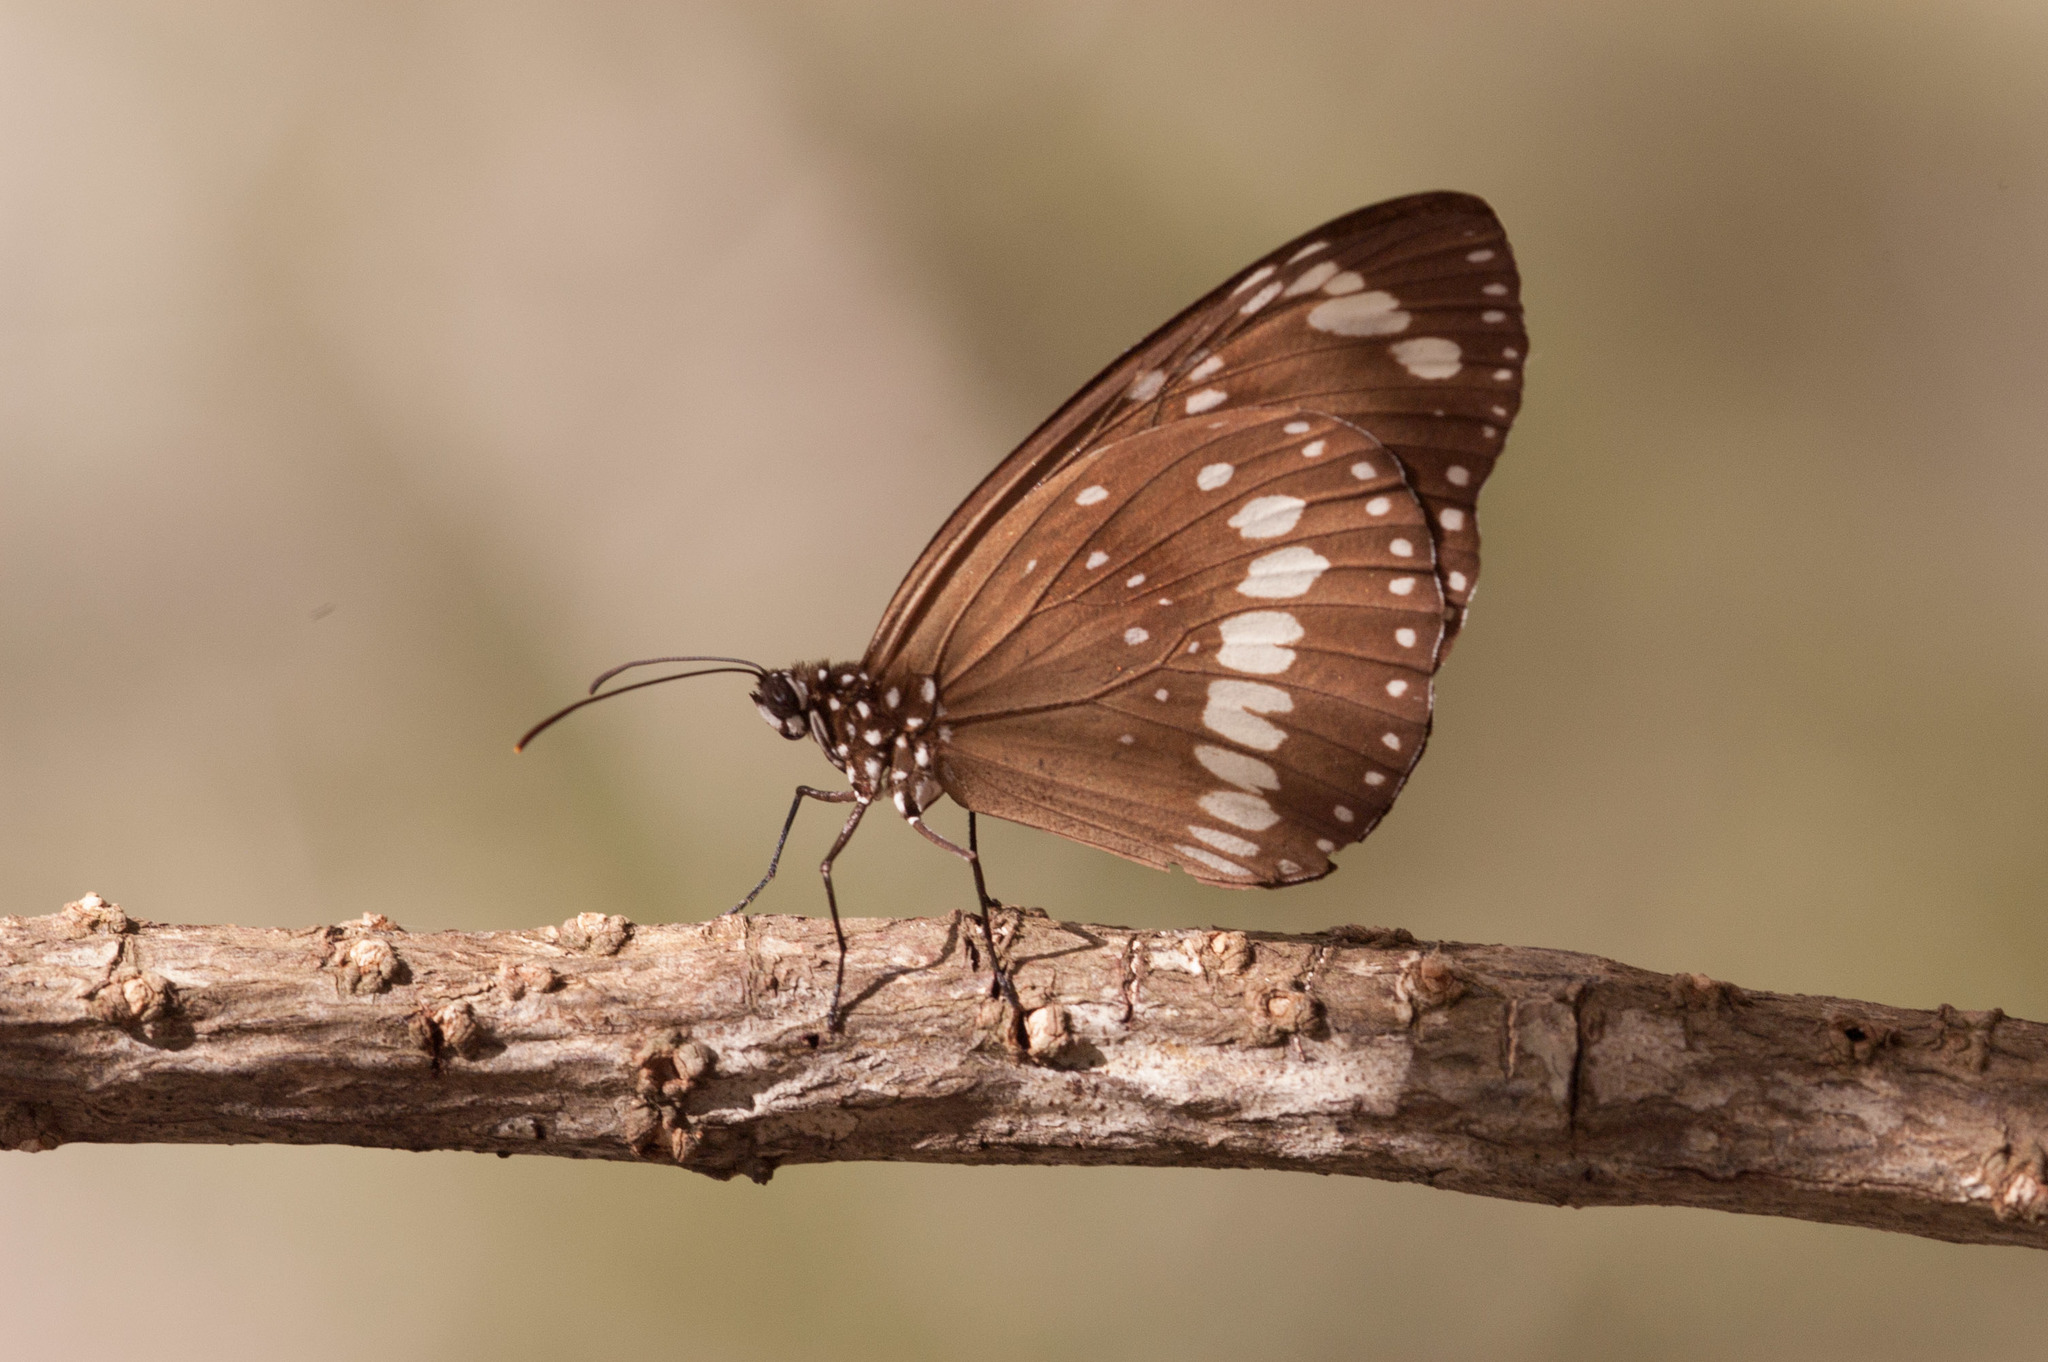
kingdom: Animalia
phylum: Arthropoda
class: Insecta
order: Lepidoptera
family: Nymphalidae
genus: Euploea
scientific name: Euploea core
